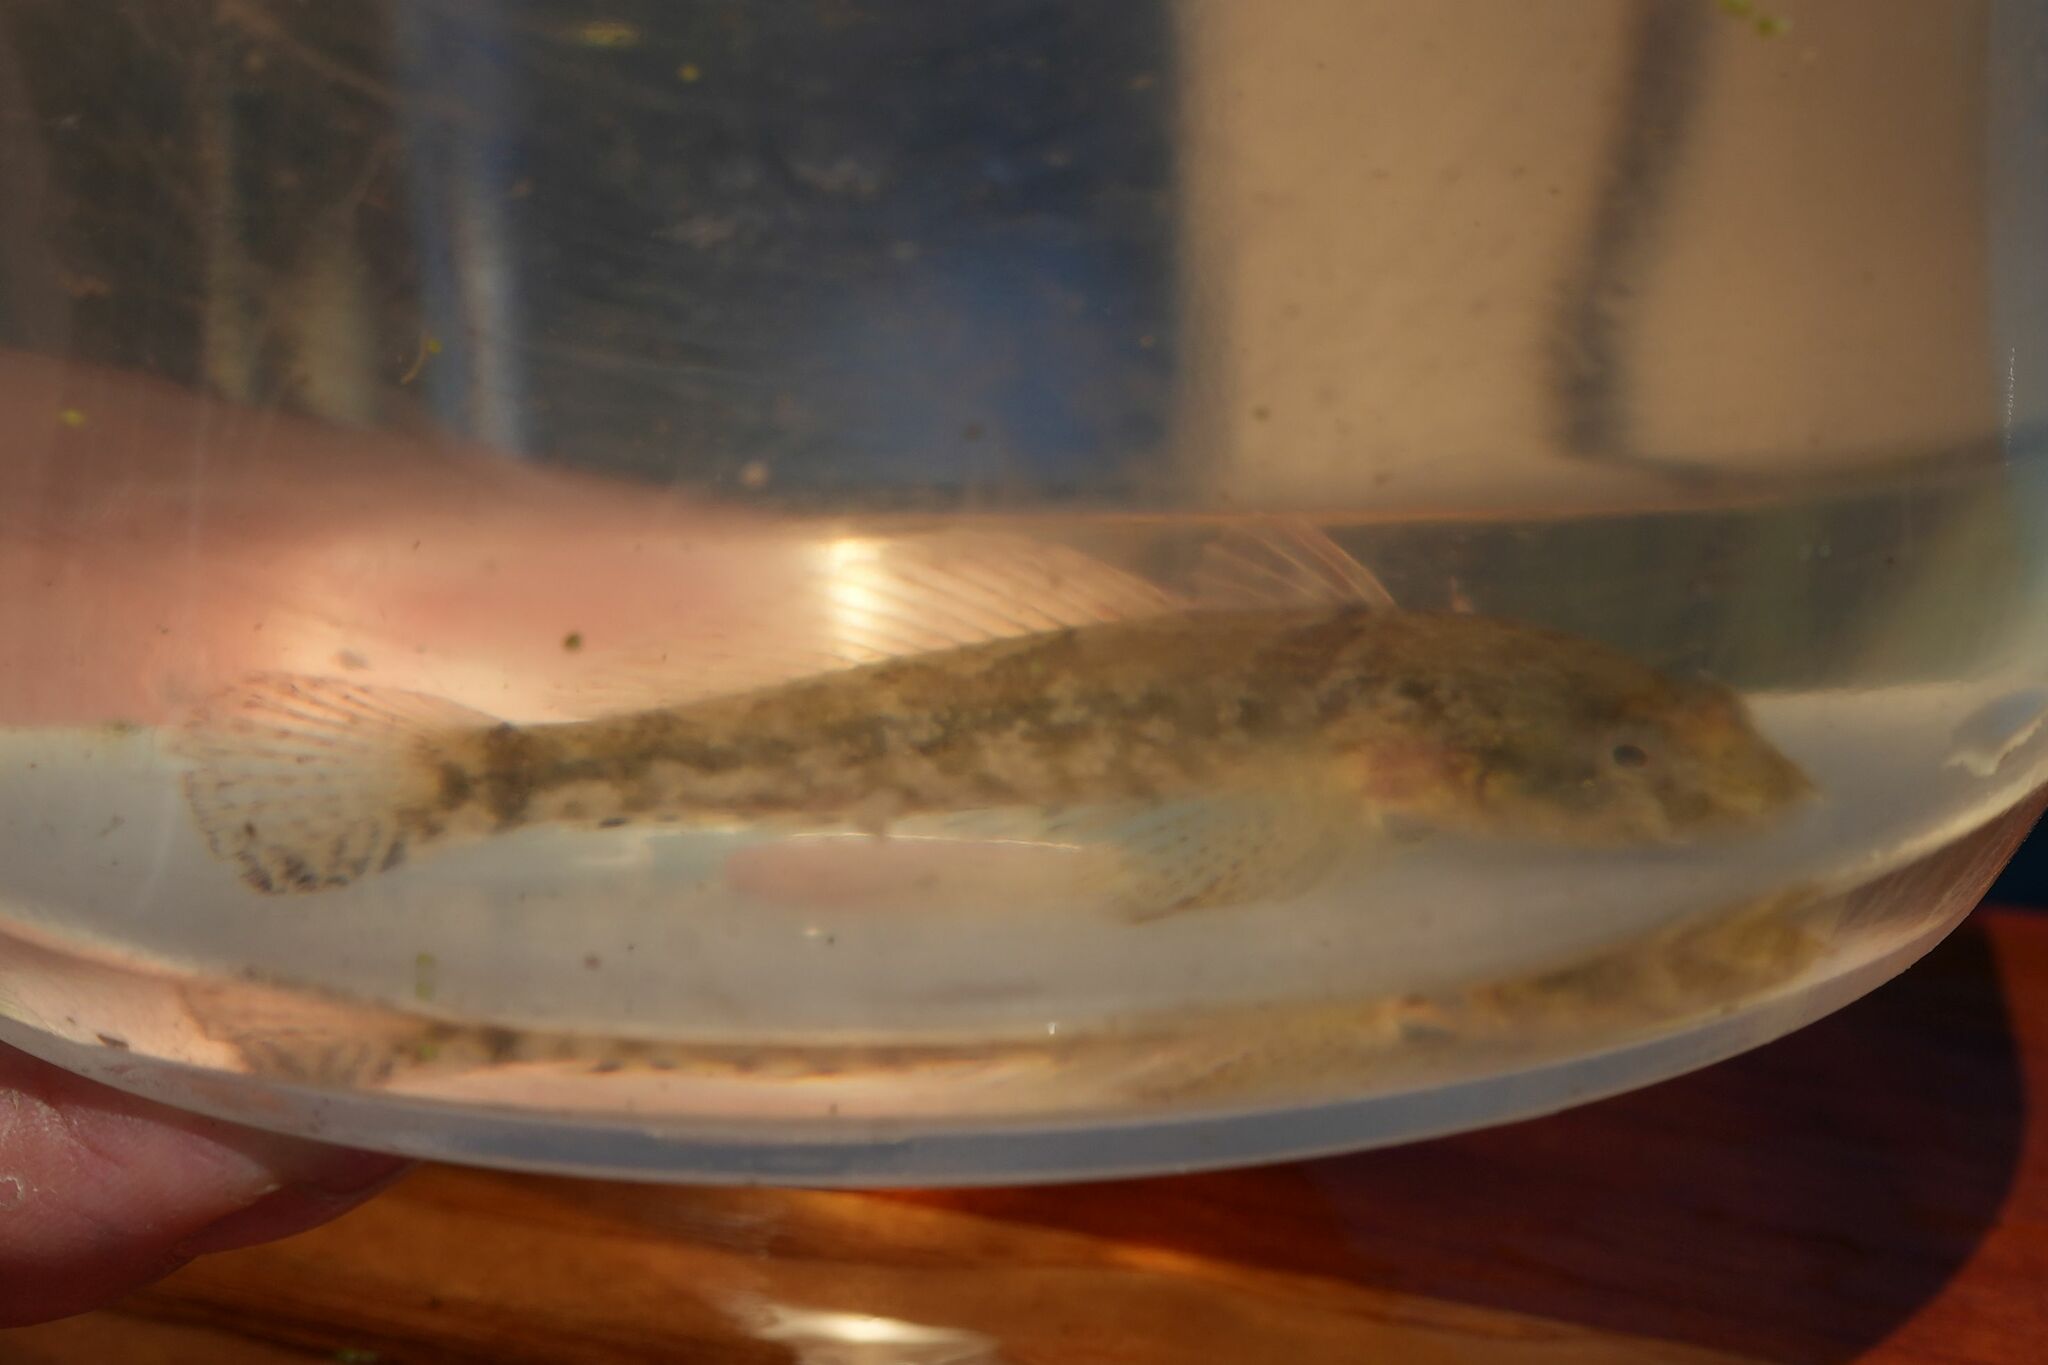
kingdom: Animalia
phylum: Chordata
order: Perciformes
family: Gobiidae
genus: Proterorhinus
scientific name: Proterorhinus semilunaris
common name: Western tubenose goby
